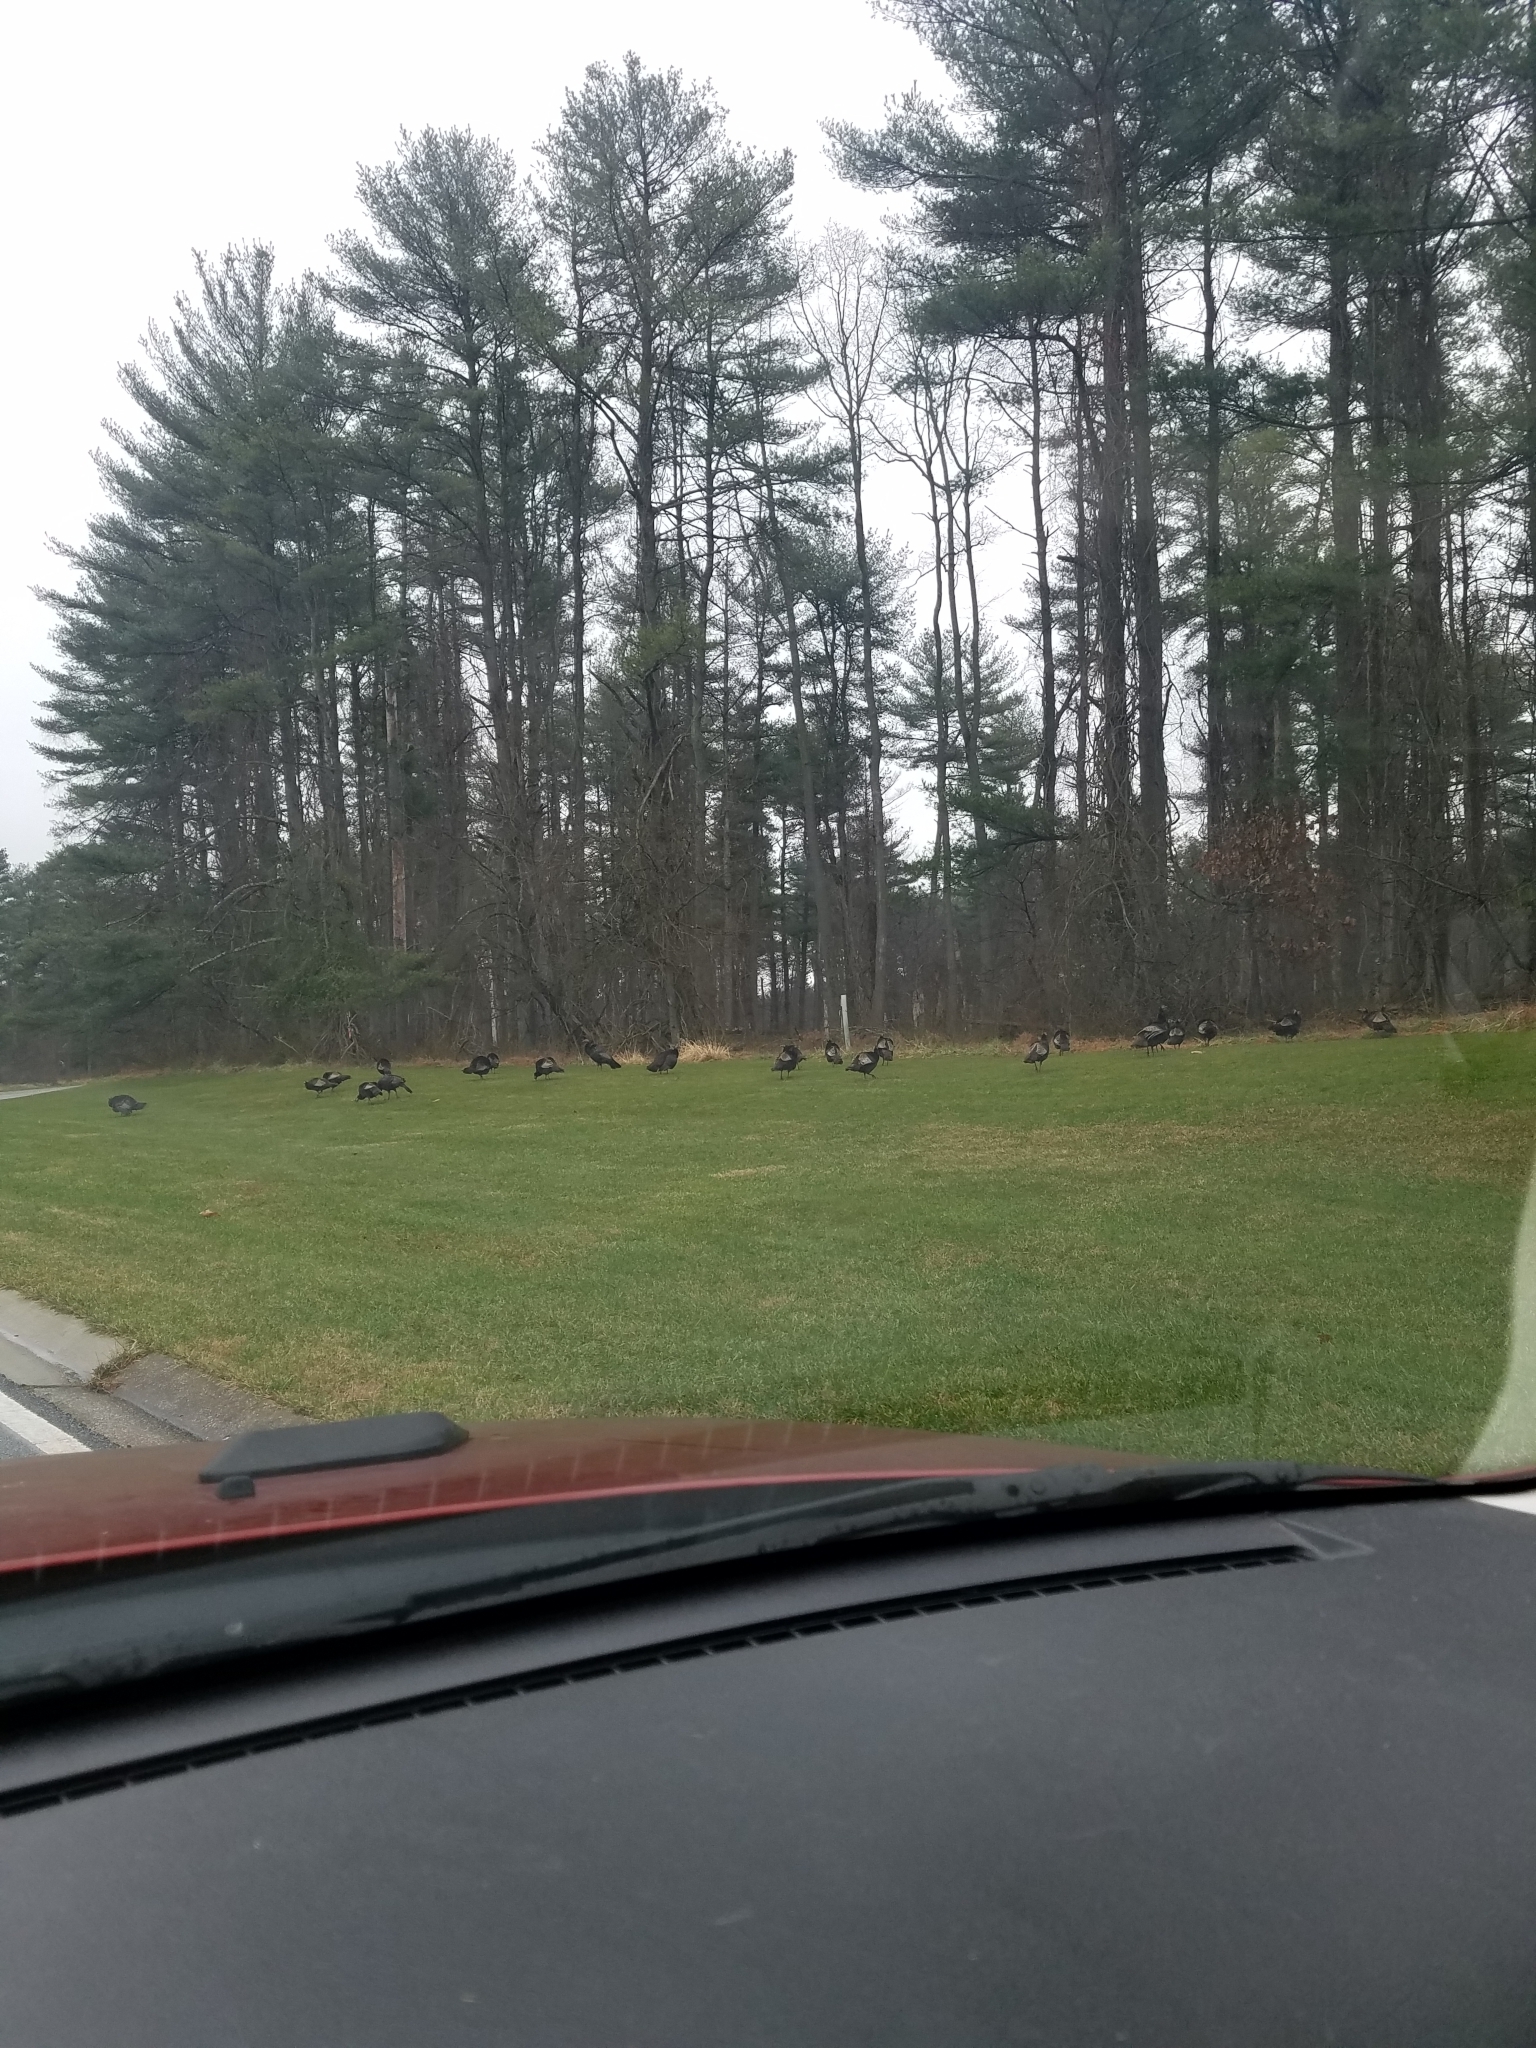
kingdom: Animalia
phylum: Chordata
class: Aves
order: Galliformes
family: Phasianidae
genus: Meleagris
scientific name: Meleagris gallopavo
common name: Wild turkey
